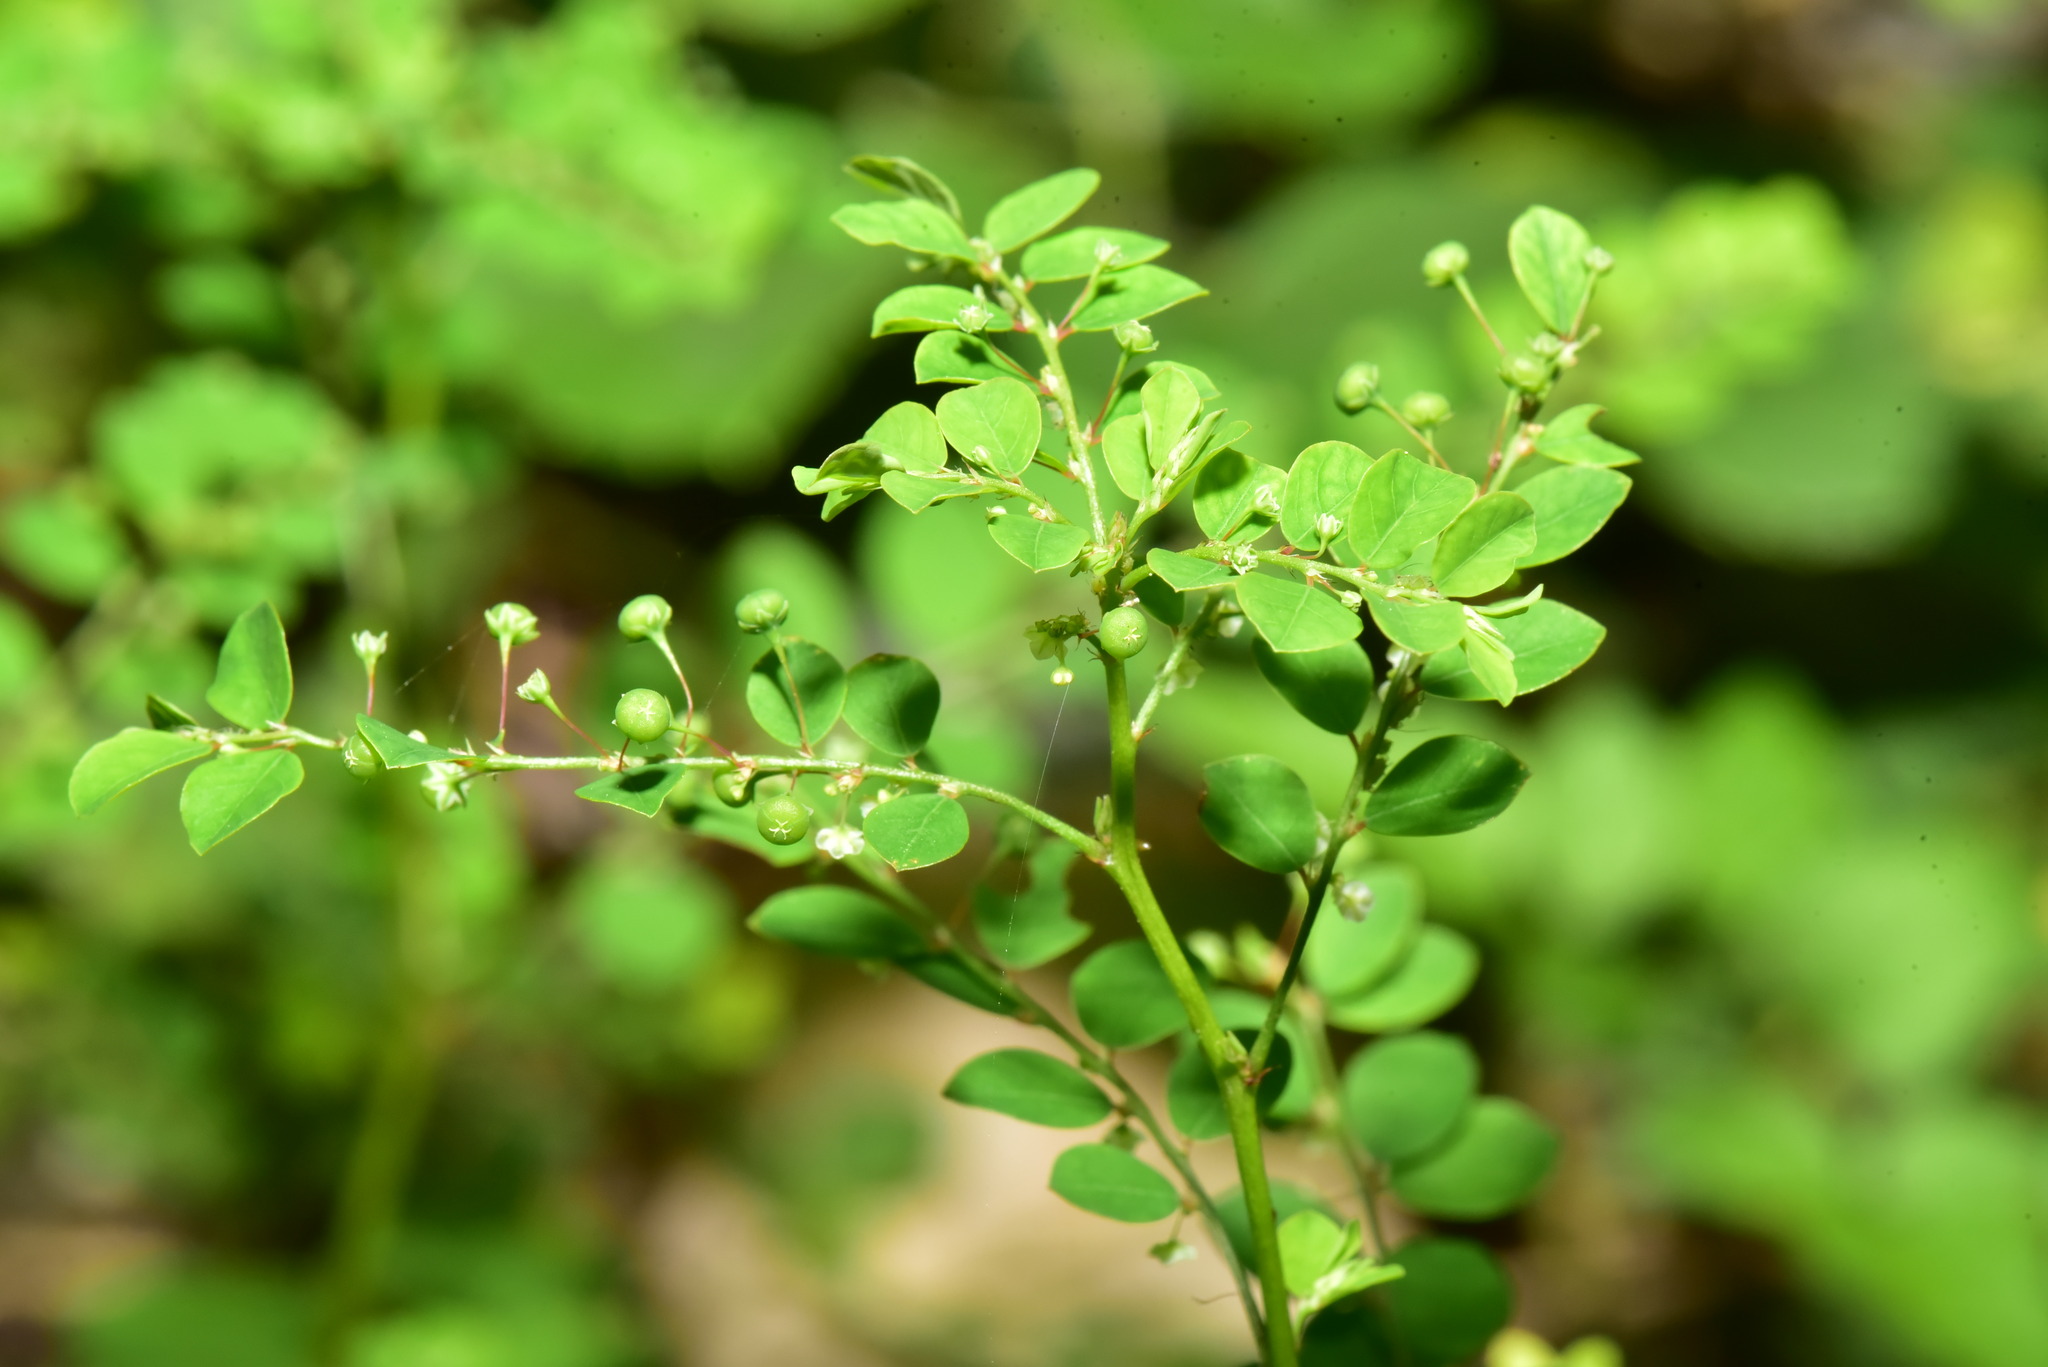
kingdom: Plantae
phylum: Tracheophyta
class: Magnoliopsida
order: Malpighiales
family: Phyllanthaceae
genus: Phyllanthus
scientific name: Phyllanthus tenellus
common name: Mascarene island leaf-flower
